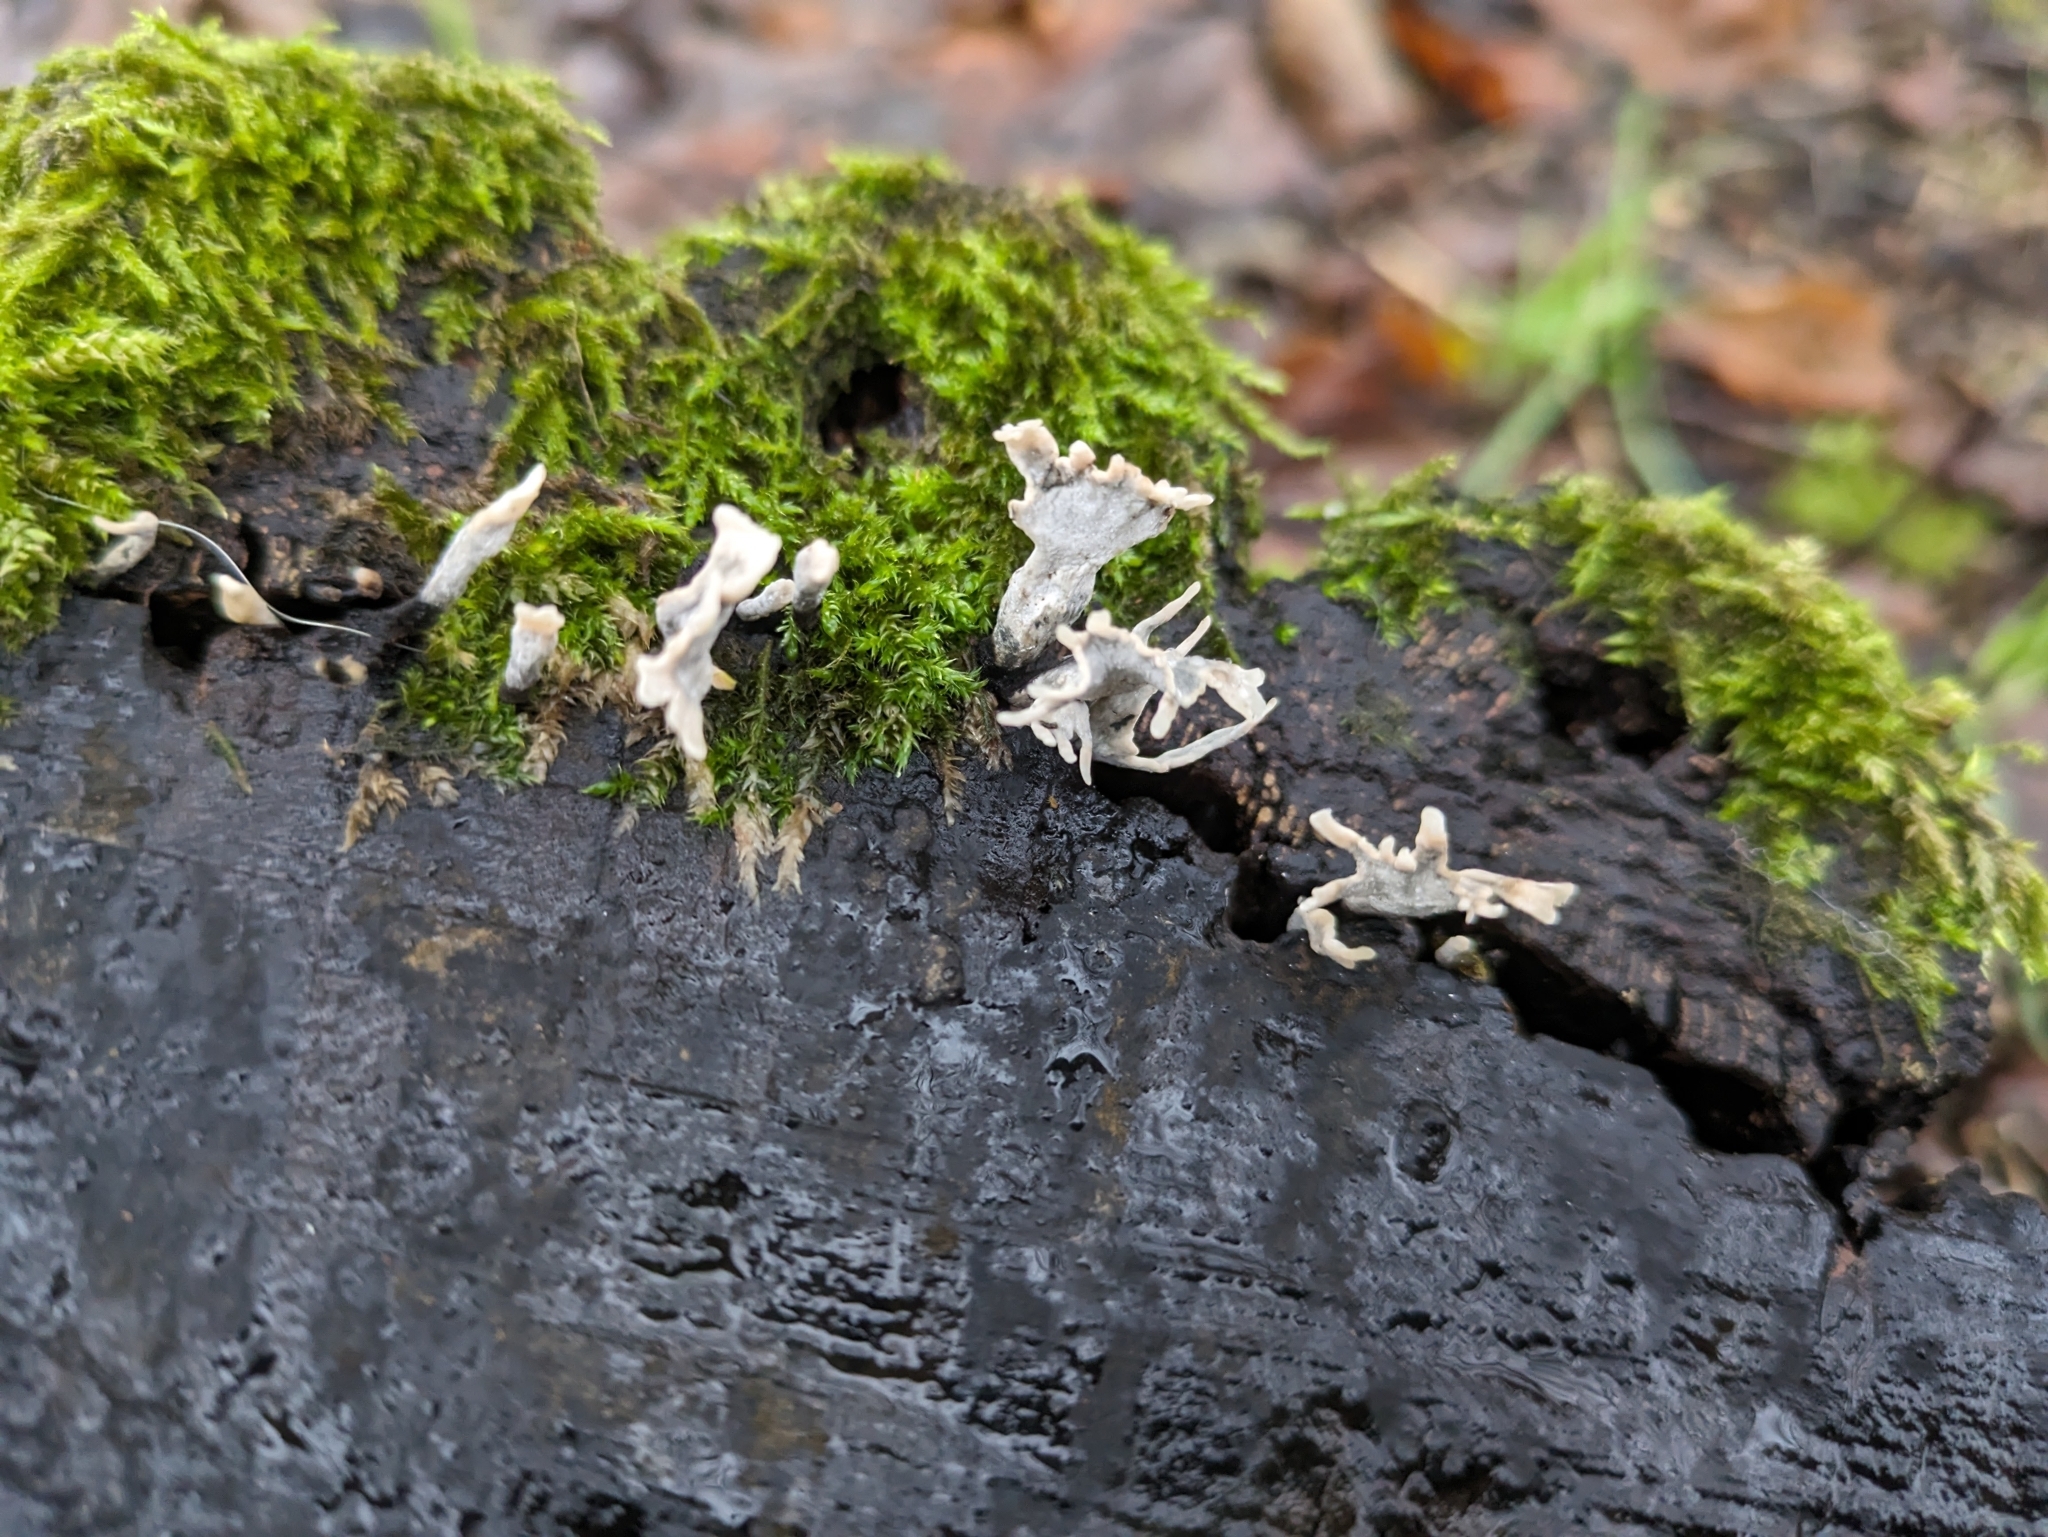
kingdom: Fungi
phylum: Ascomycota
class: Sordariomycetes
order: Xylariales
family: Xylariaceae
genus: Xylaria
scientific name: Xylaria hypoxylon
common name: Candle-snuff fungus
